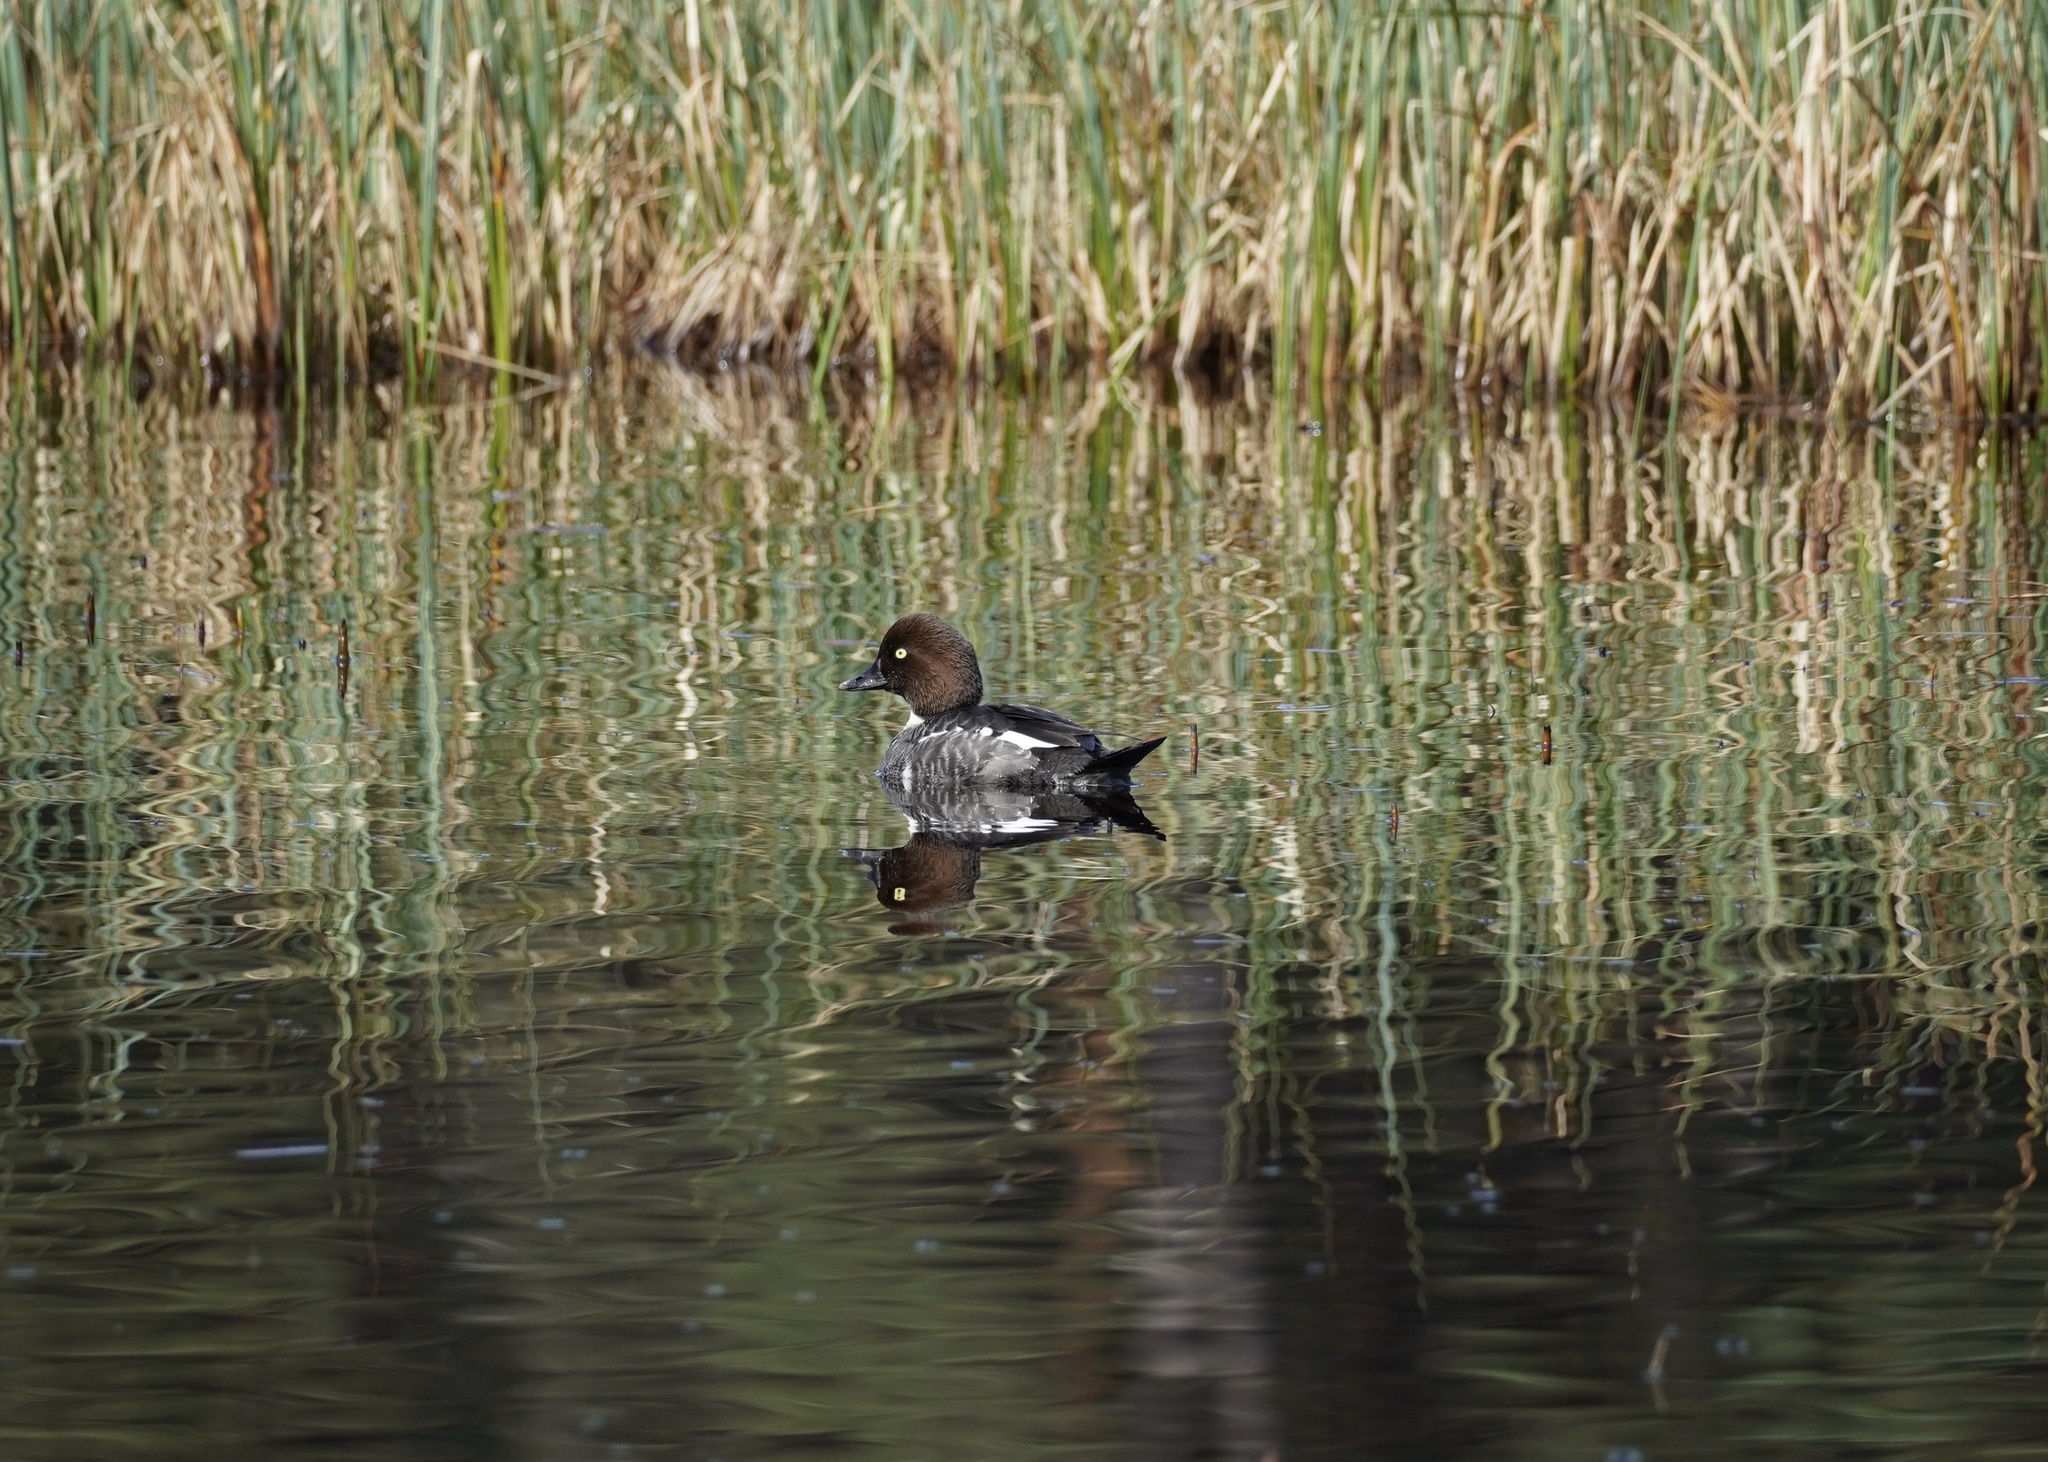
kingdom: Animalia
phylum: Chordata
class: Aves
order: Anseriformes
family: Anatidae
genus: Bucephala
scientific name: Bucephala clangula
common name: Common goldeneye
